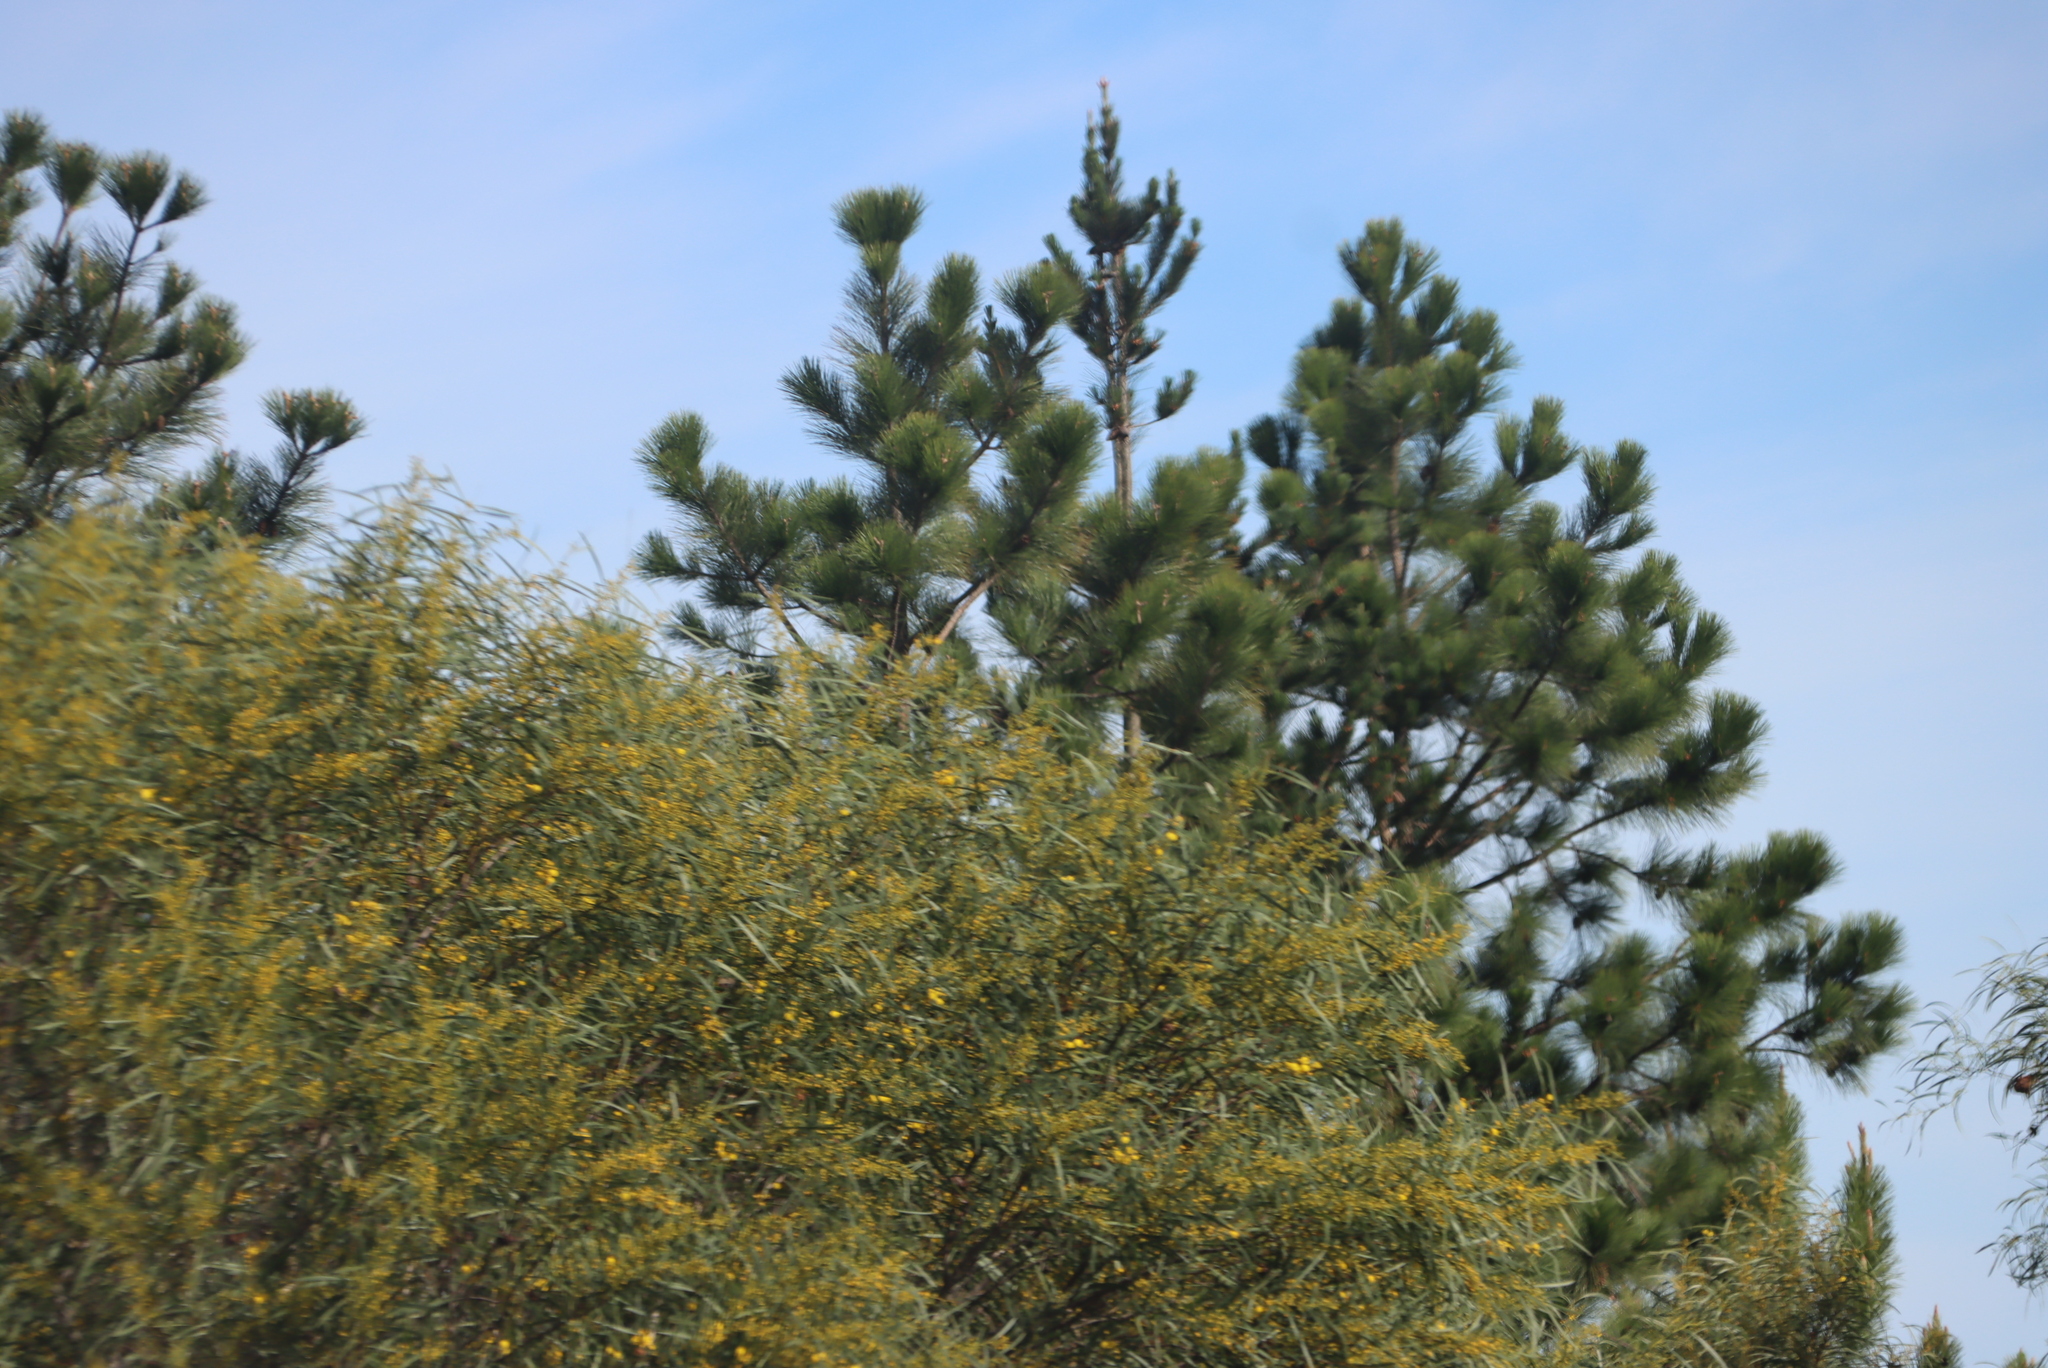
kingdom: Plantae
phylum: Tracheophyta
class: Magnoliopsida
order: Fabales
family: Fabaceae
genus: Acacia
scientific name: Acacia saligna
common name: Orange wattle
